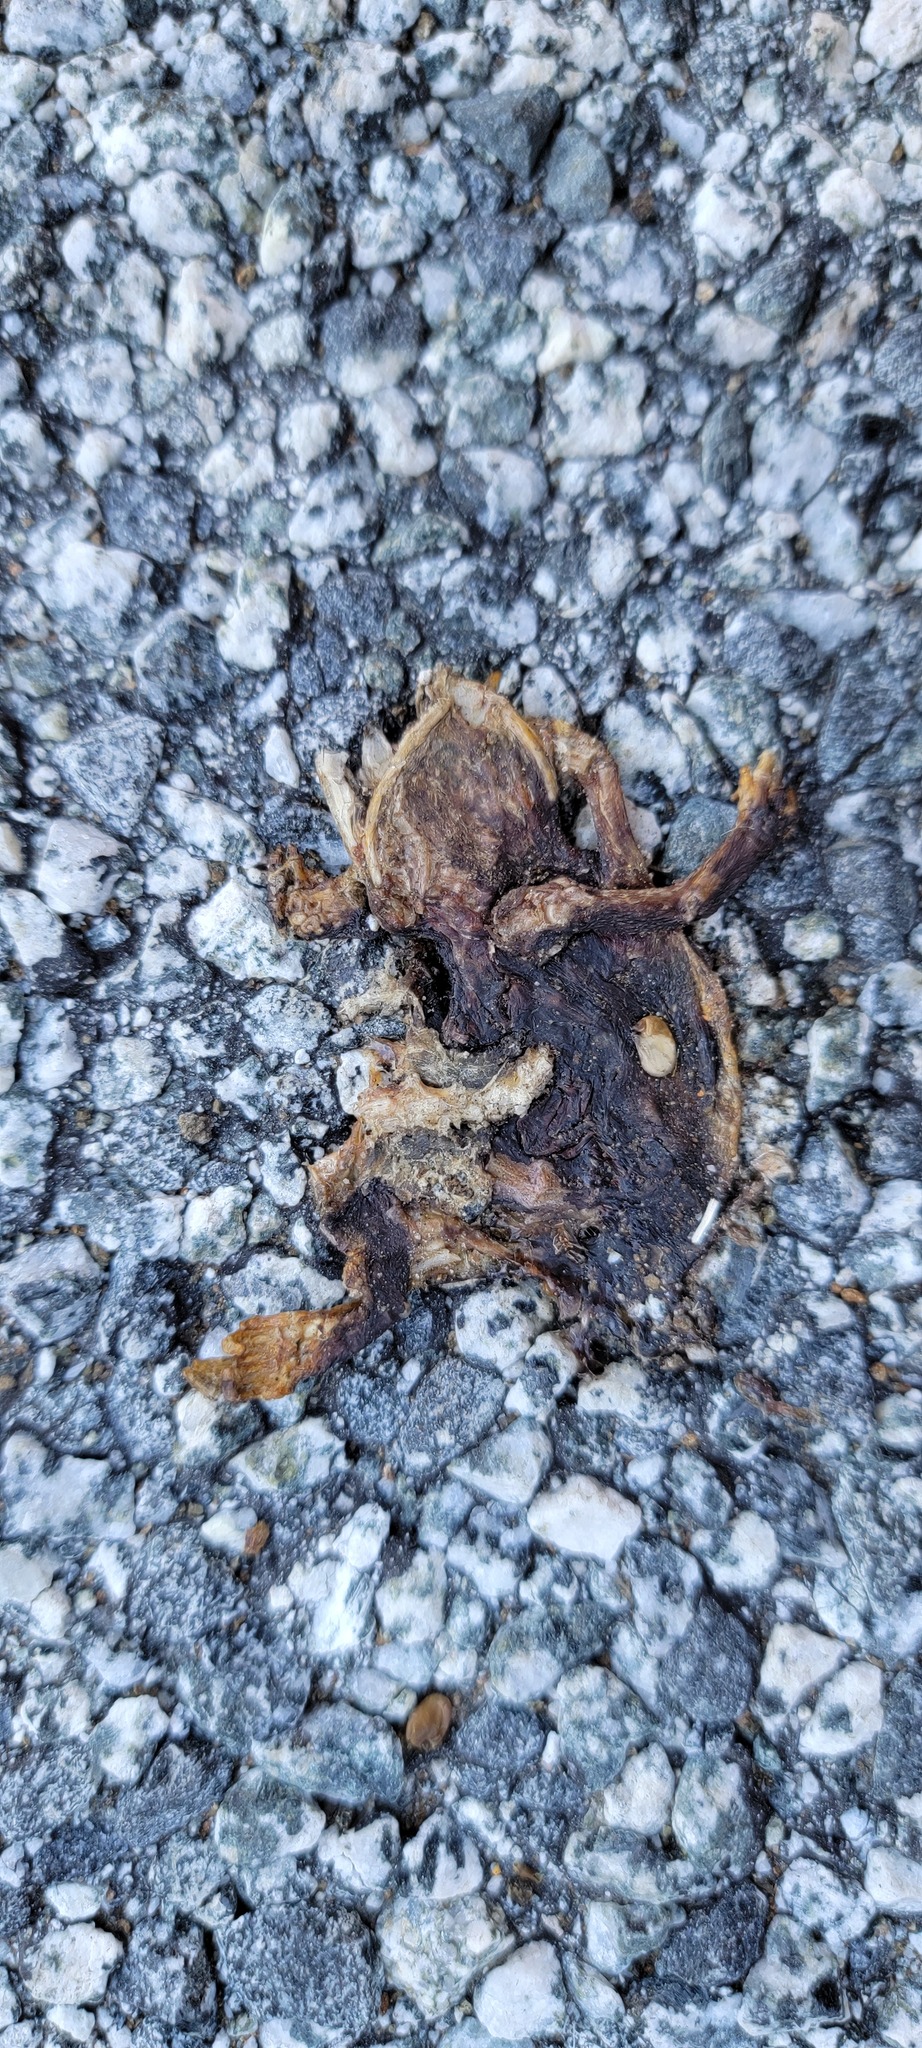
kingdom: Animalia
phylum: Chordata
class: Amphibia
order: Caudata
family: Salamandridae
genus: Taricha
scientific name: Taricha
